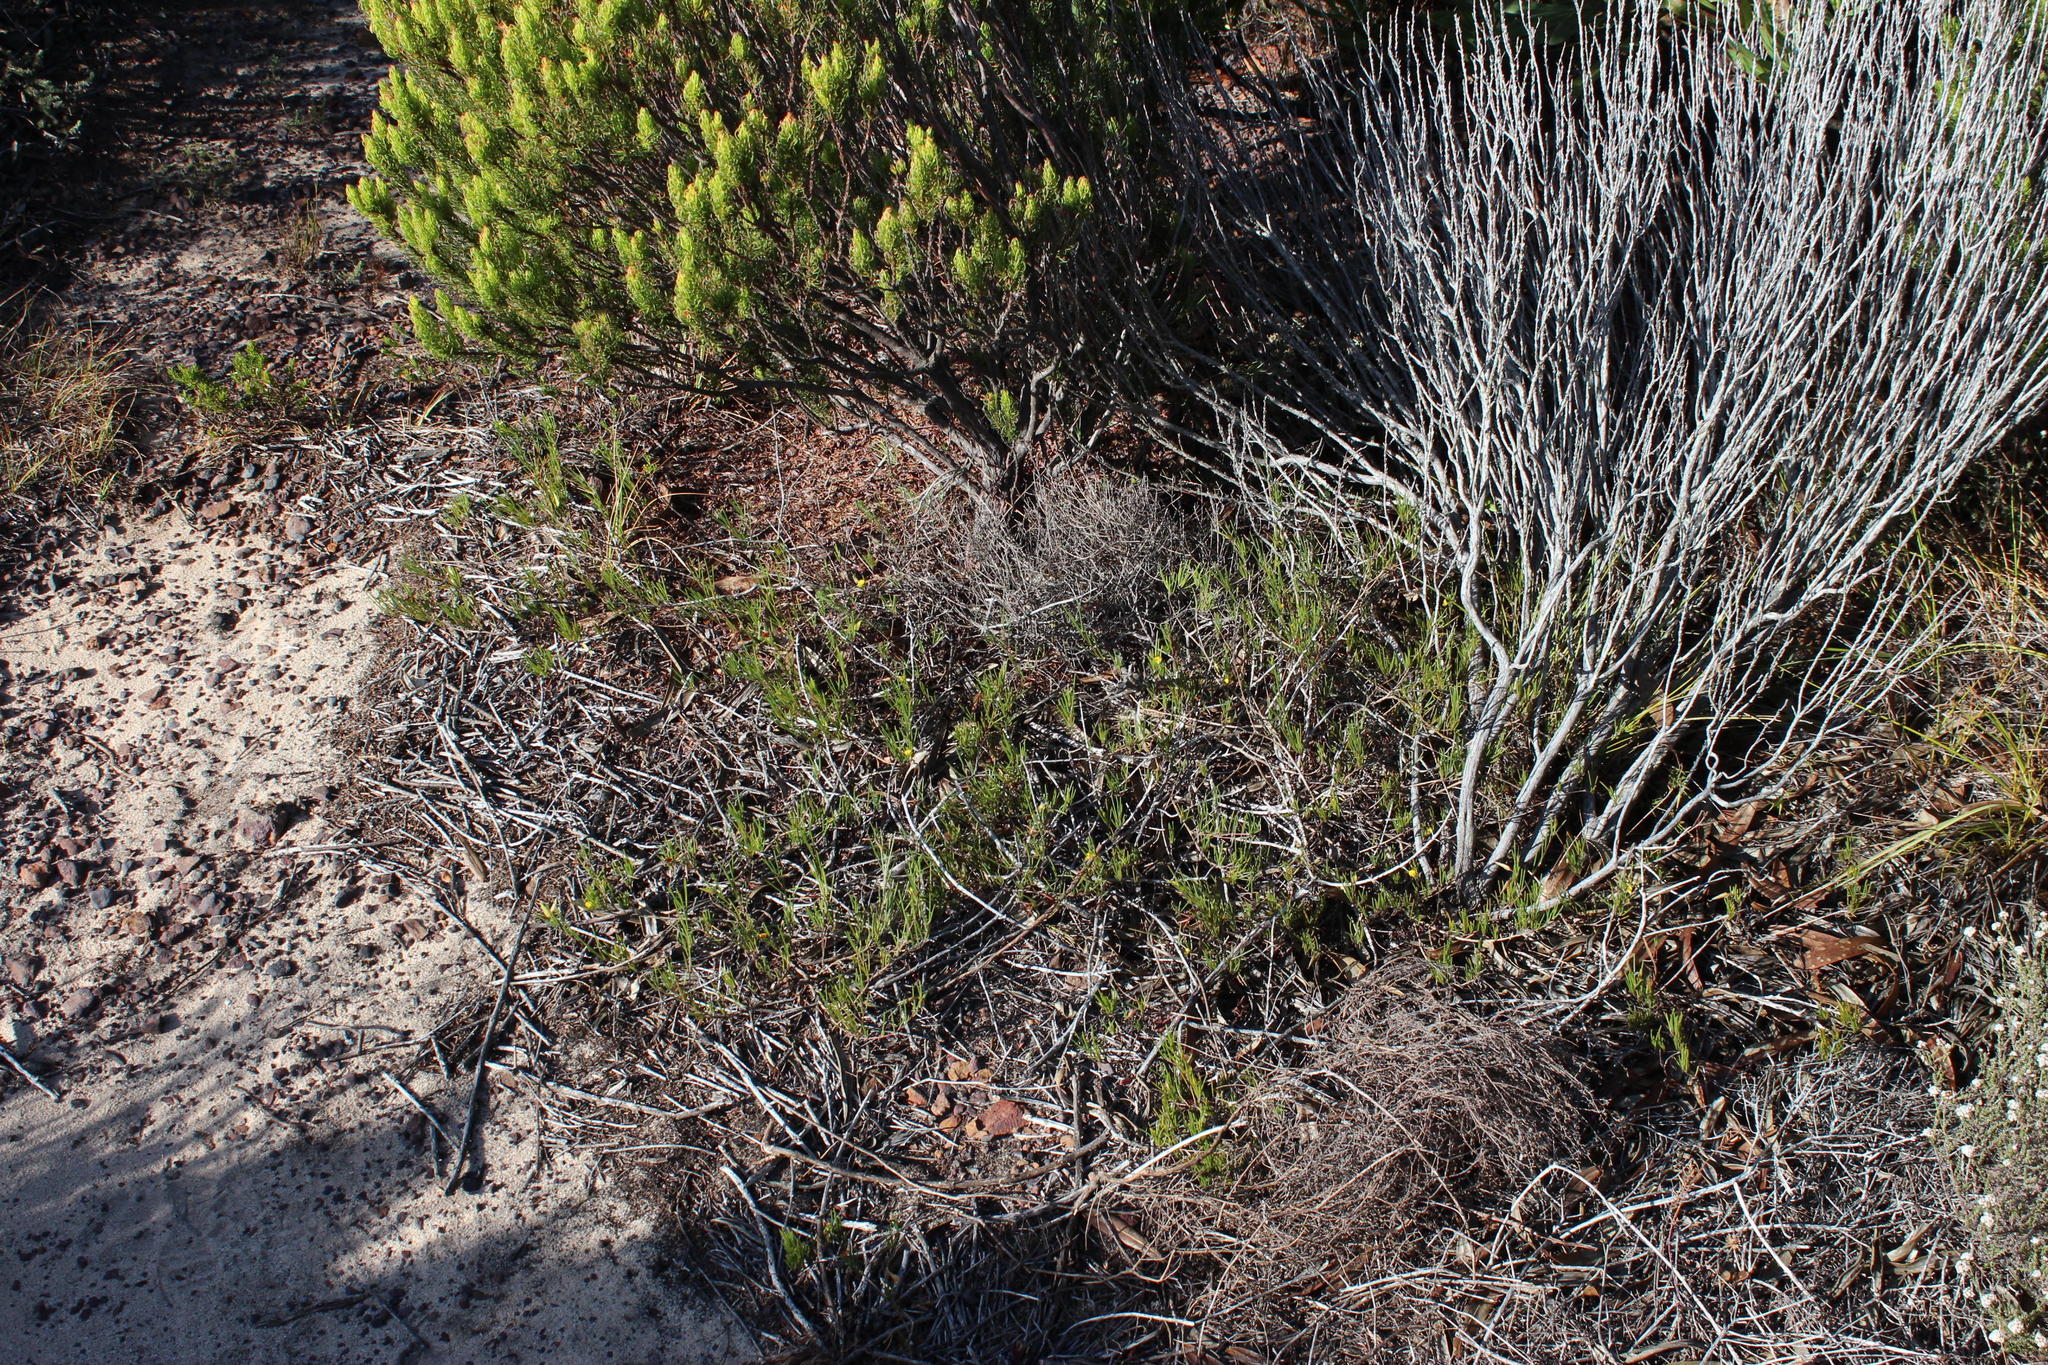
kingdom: Plantae
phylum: Tracheophyta
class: Magnoliopsida
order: Ericales
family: Ericaceae
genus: Erica
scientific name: Erica tristis
